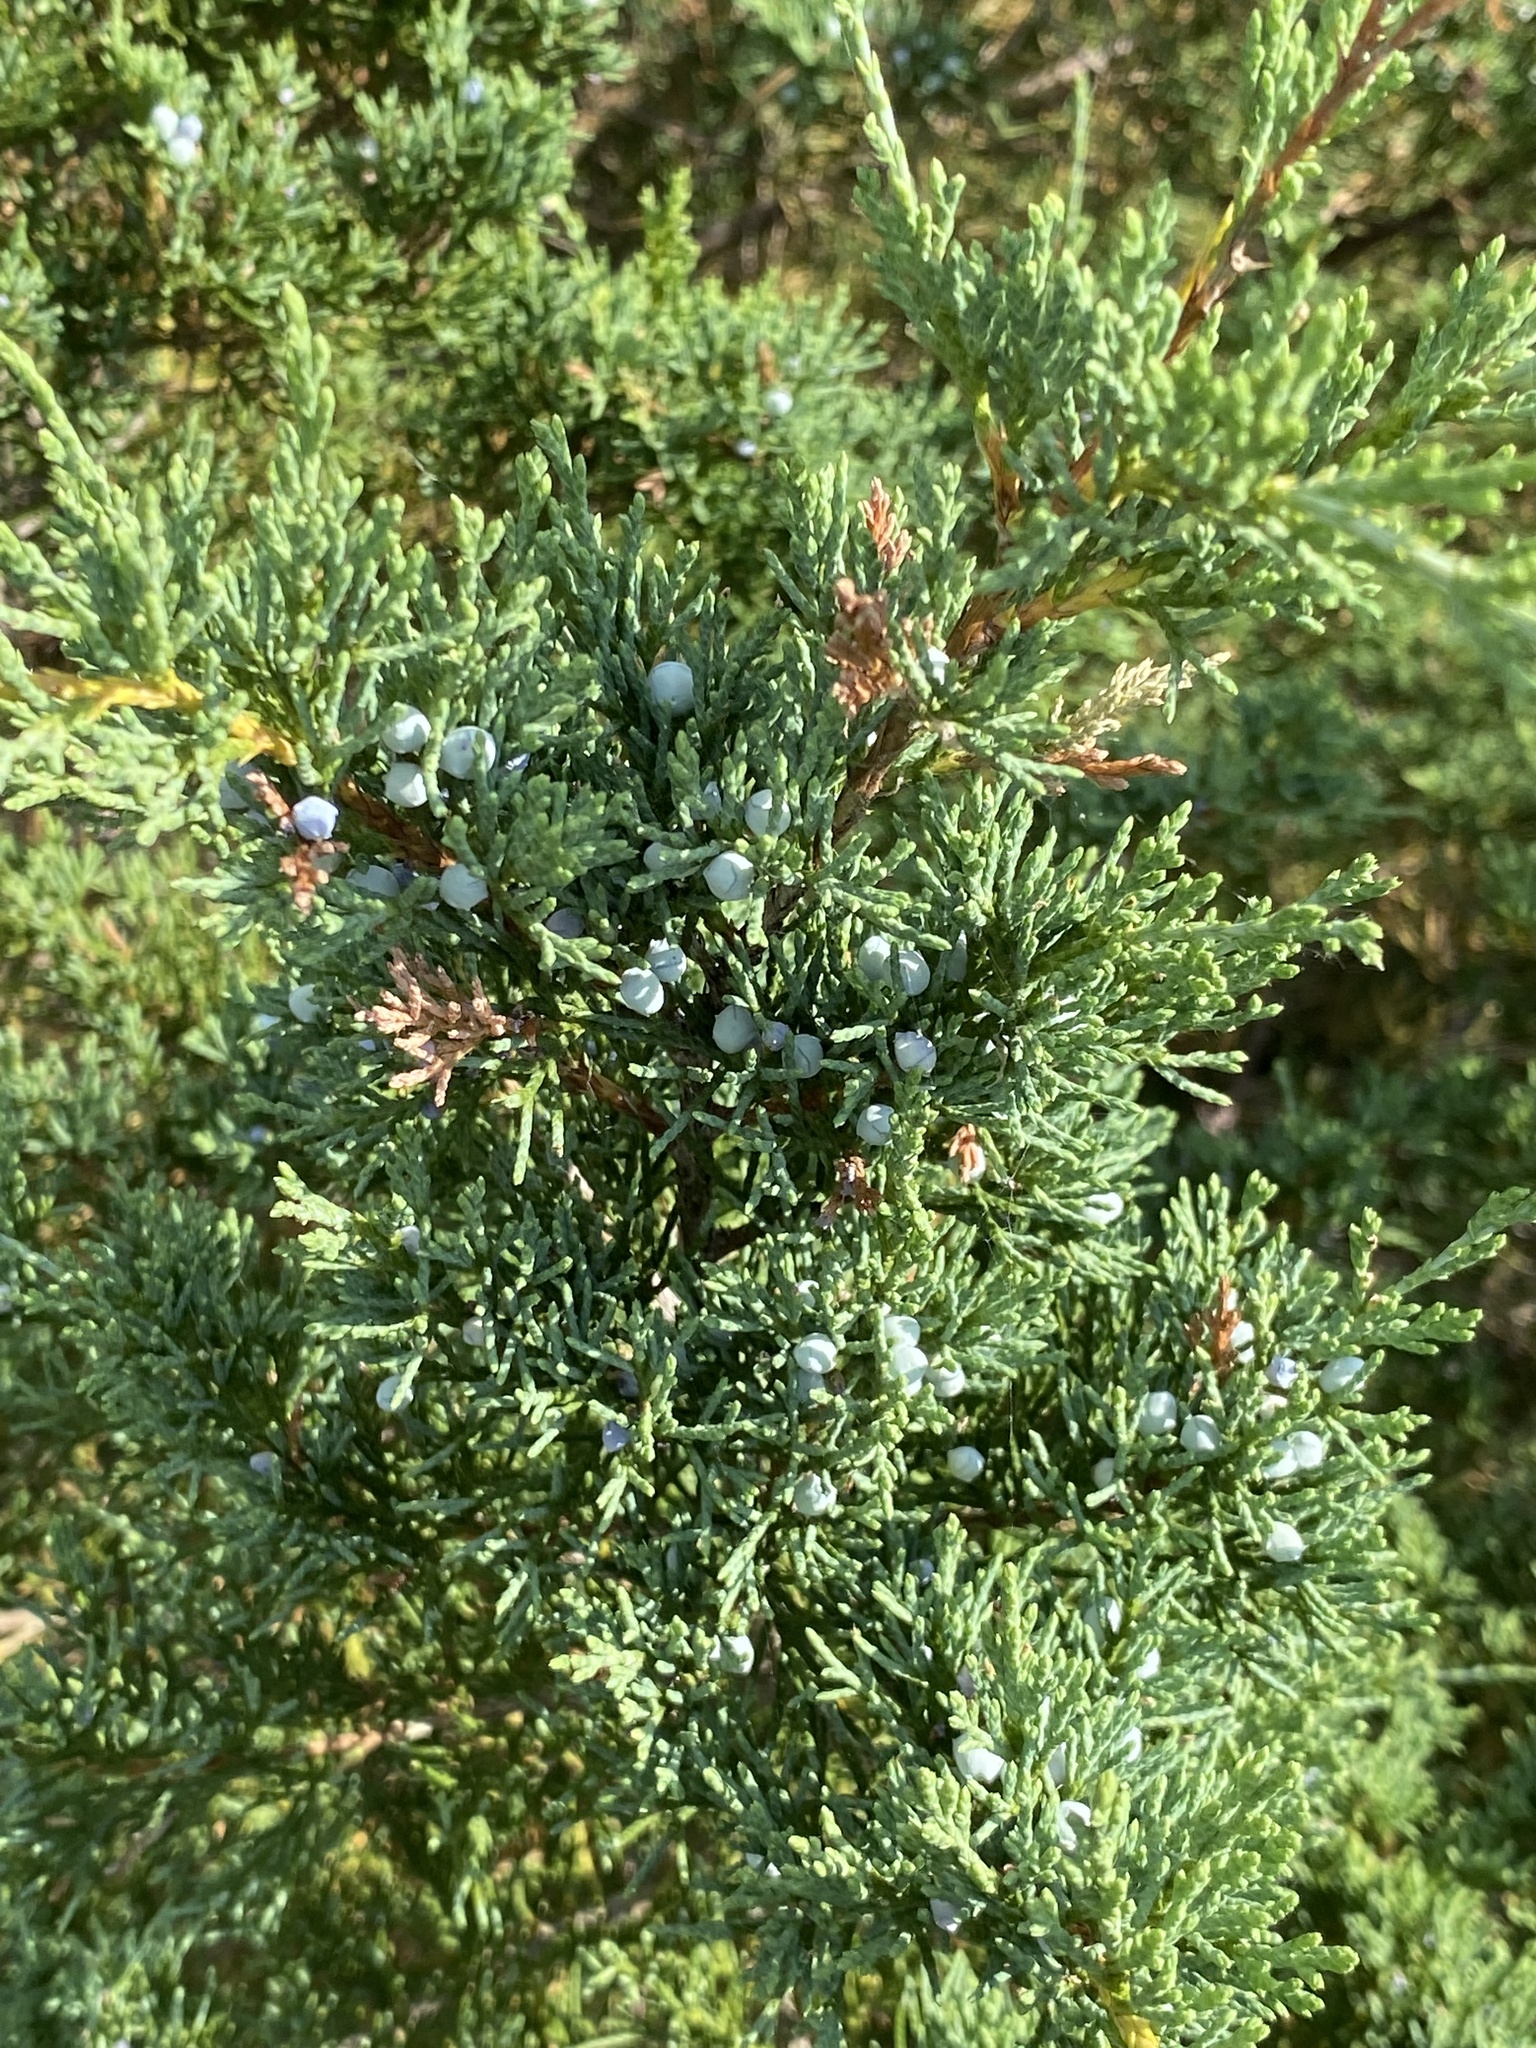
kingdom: Plantae
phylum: Tracheophyta
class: Pinopsida
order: Pinales
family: Cupressaceae
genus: Juniperus
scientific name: Juniperus virginiana
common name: Red juniper
